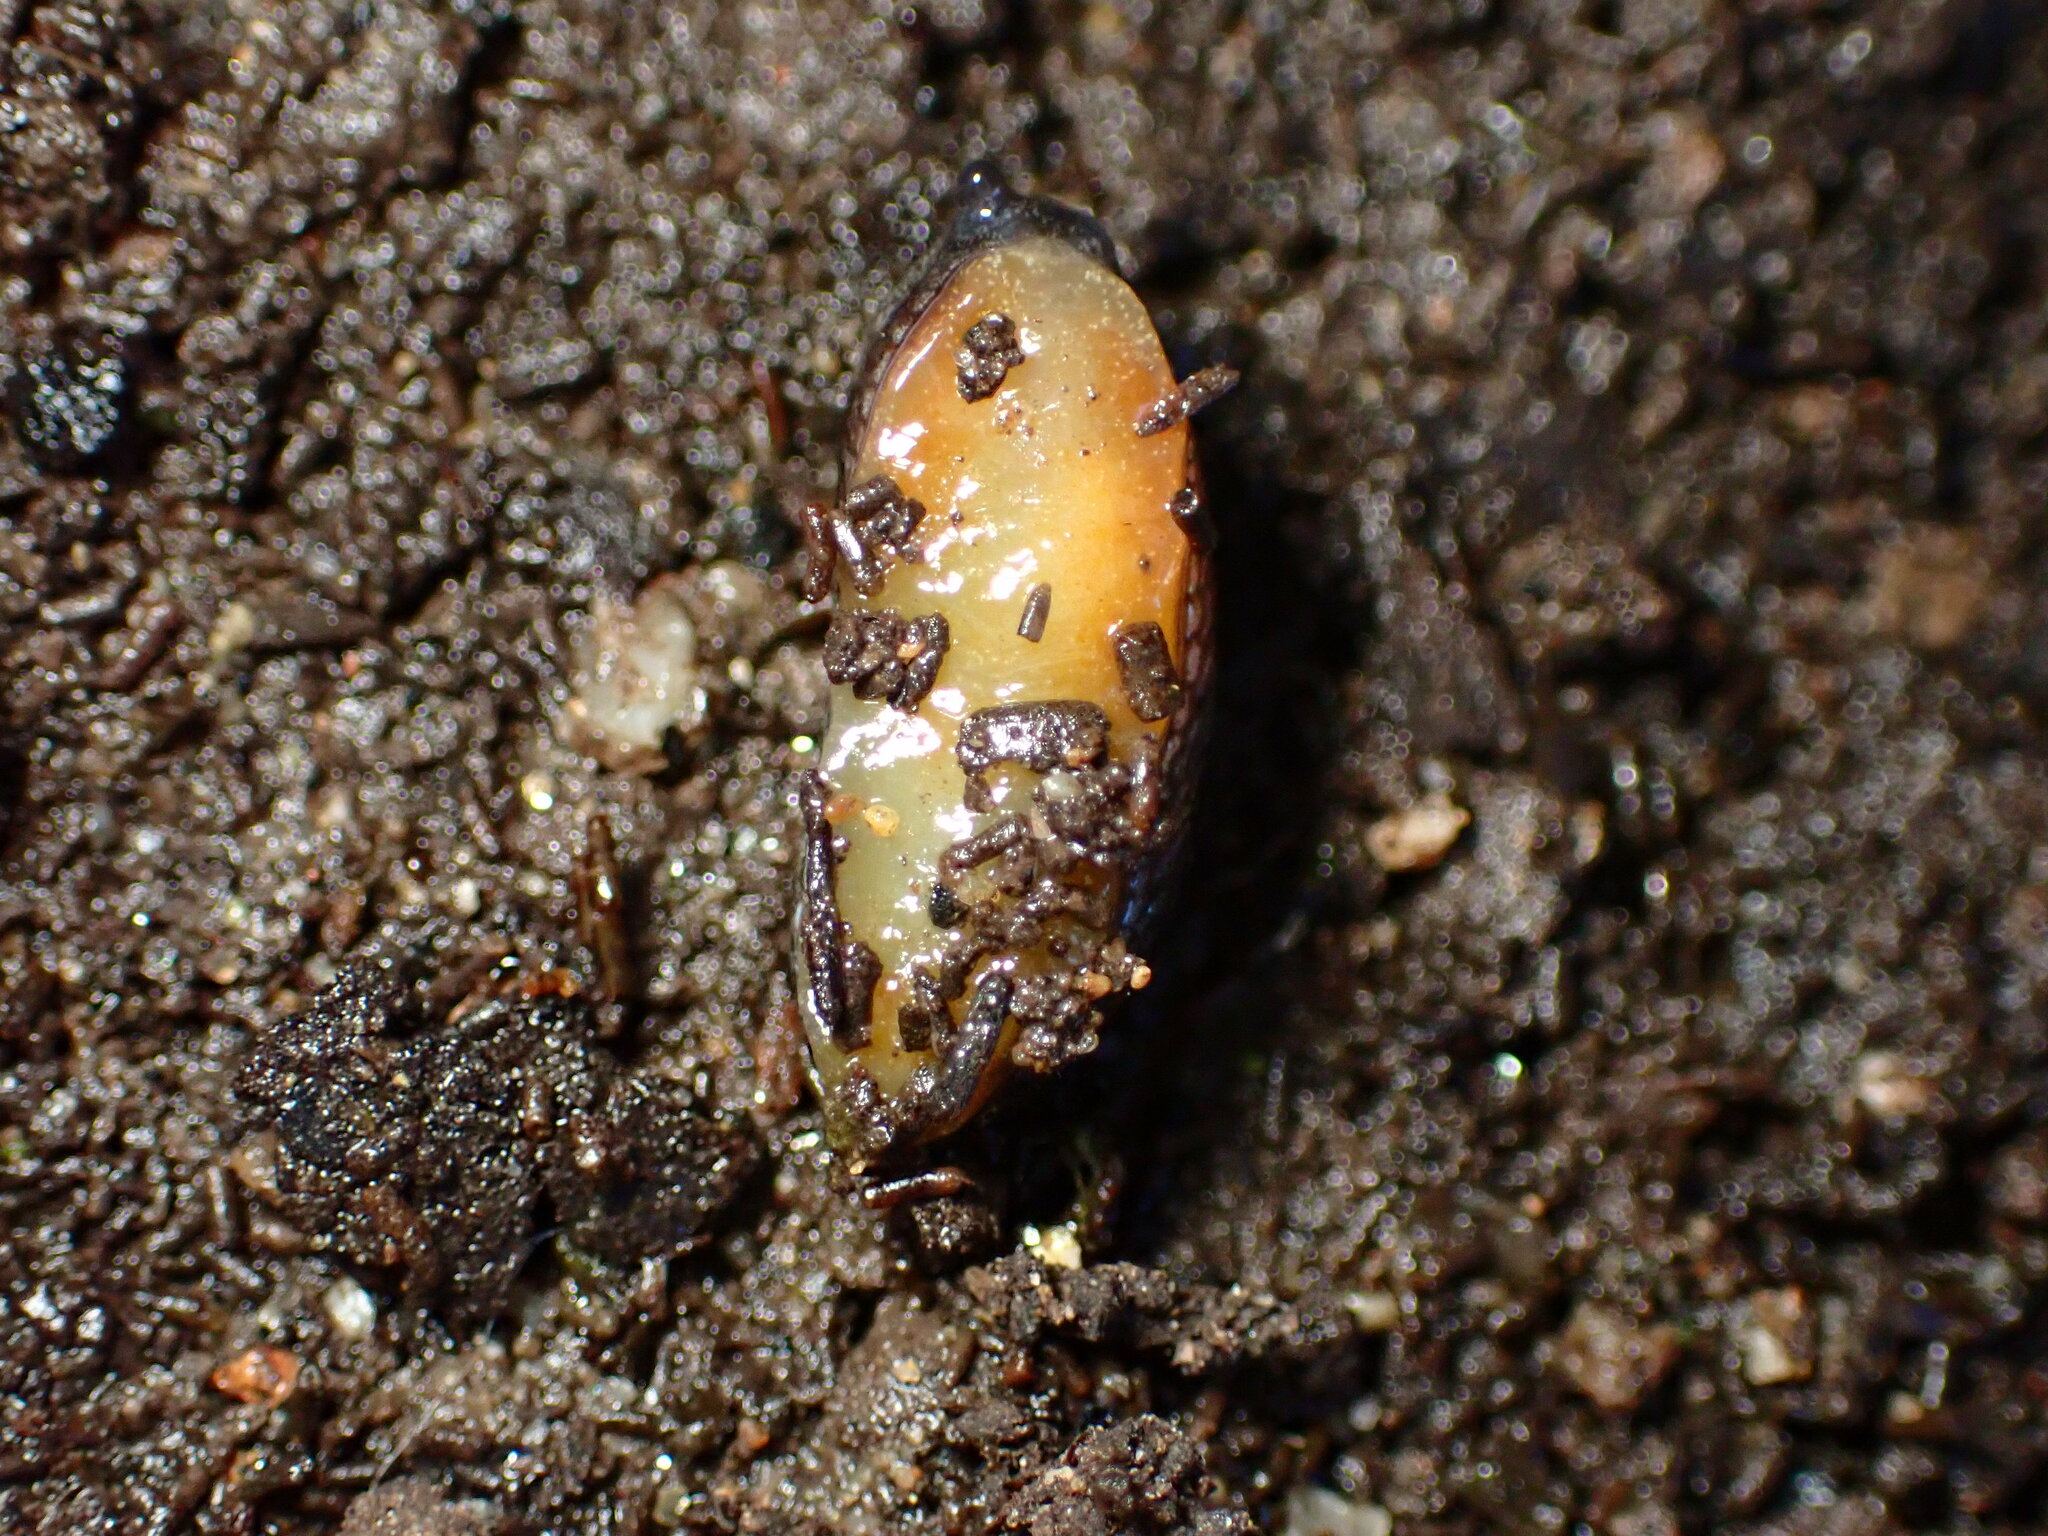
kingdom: Animalia
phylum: Mollusca
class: Gastropoda
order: Stylommatophora
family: Arionidae
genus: Kobeltia
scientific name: Kobeltia
